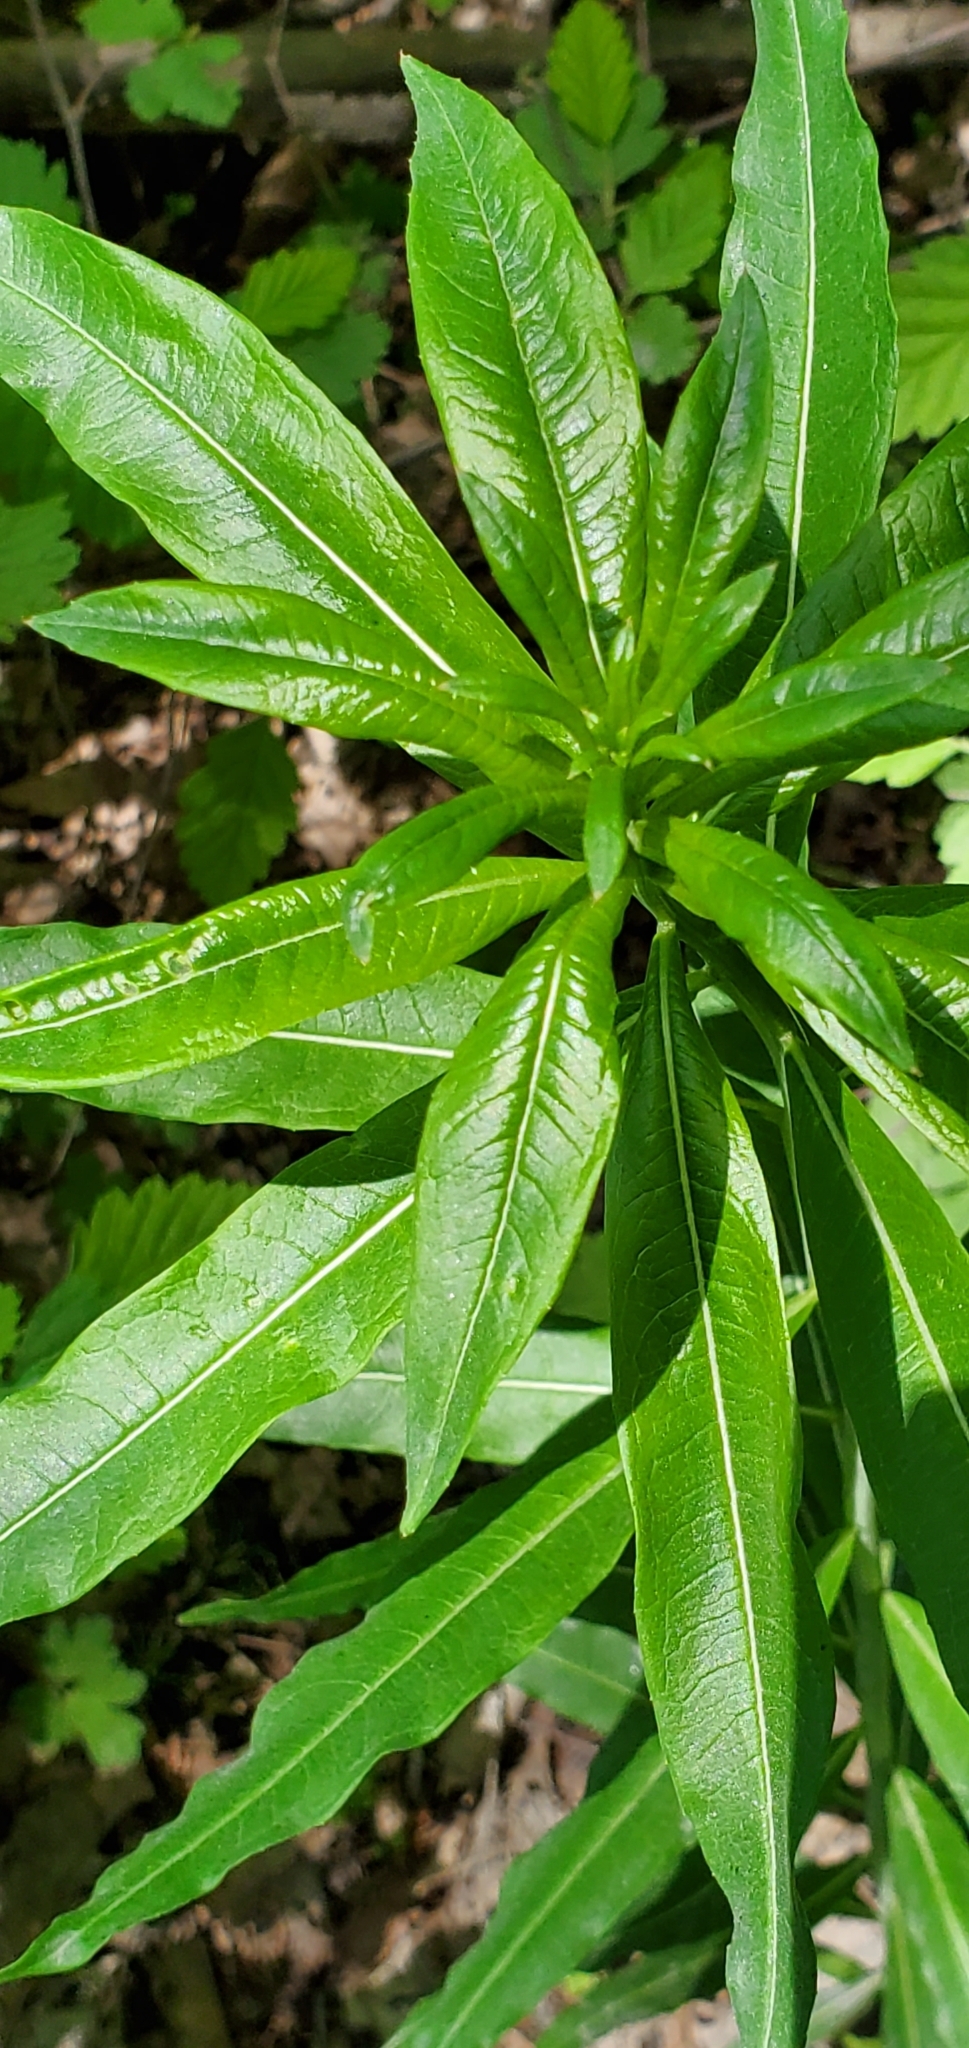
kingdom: Plantae
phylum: Tracheophyta
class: Magnoliopsida
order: Myrtales
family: Onagraceae
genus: Chamaenerion
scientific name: Chamaenerion angustifolium
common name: Fireweed
